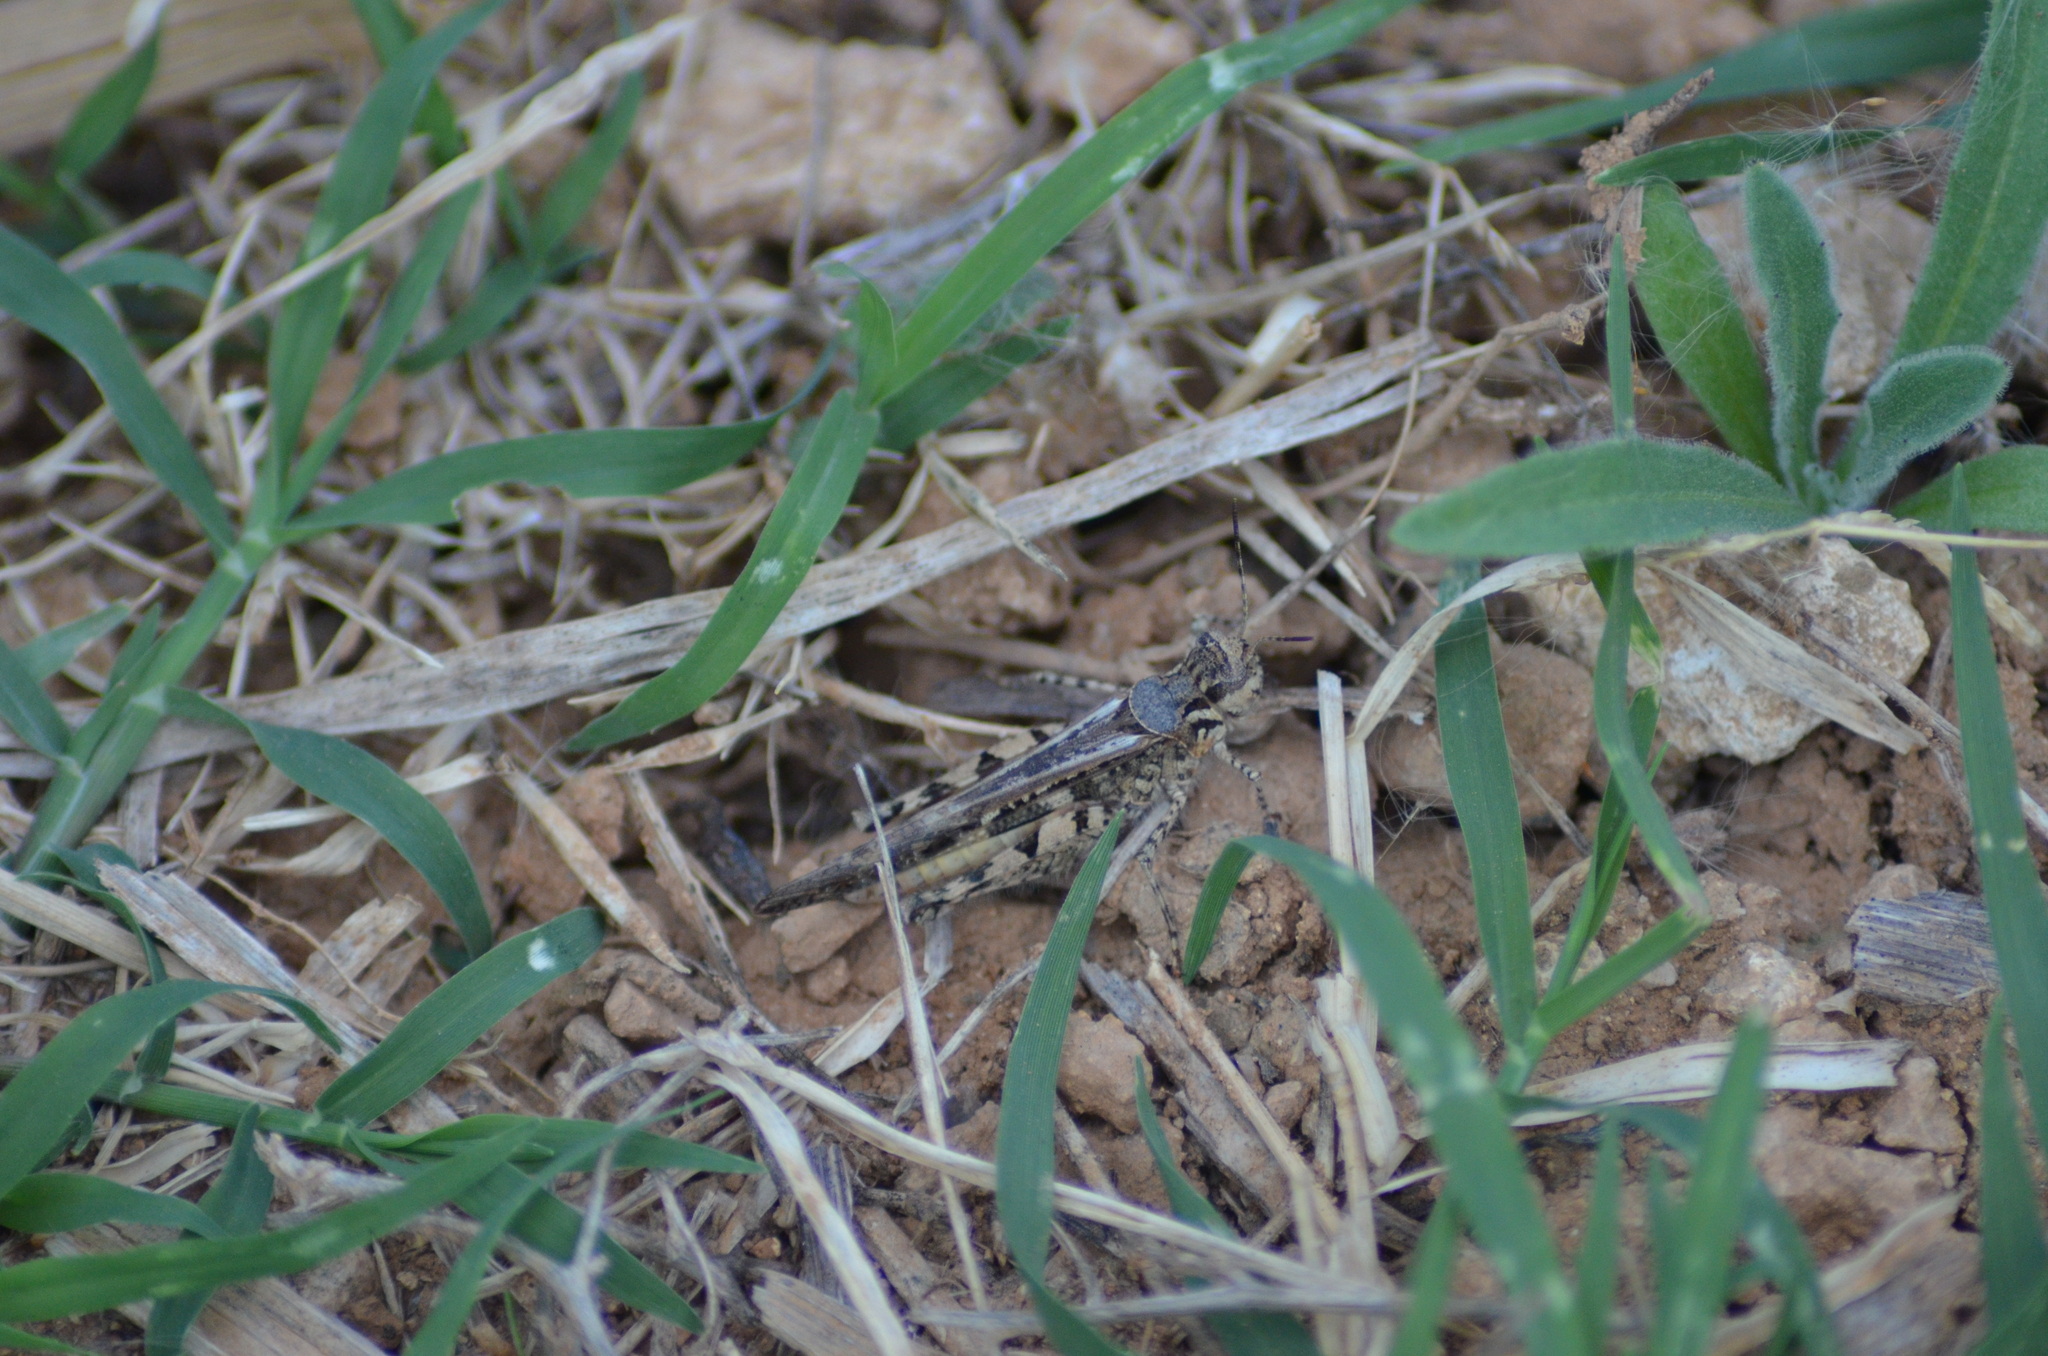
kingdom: Animalia
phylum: Arthropoda
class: Insecta
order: Orthoptera
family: Acrididae
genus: Acrotylus
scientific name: Acrotylus patruelis
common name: Slender burrowing grasshopper
